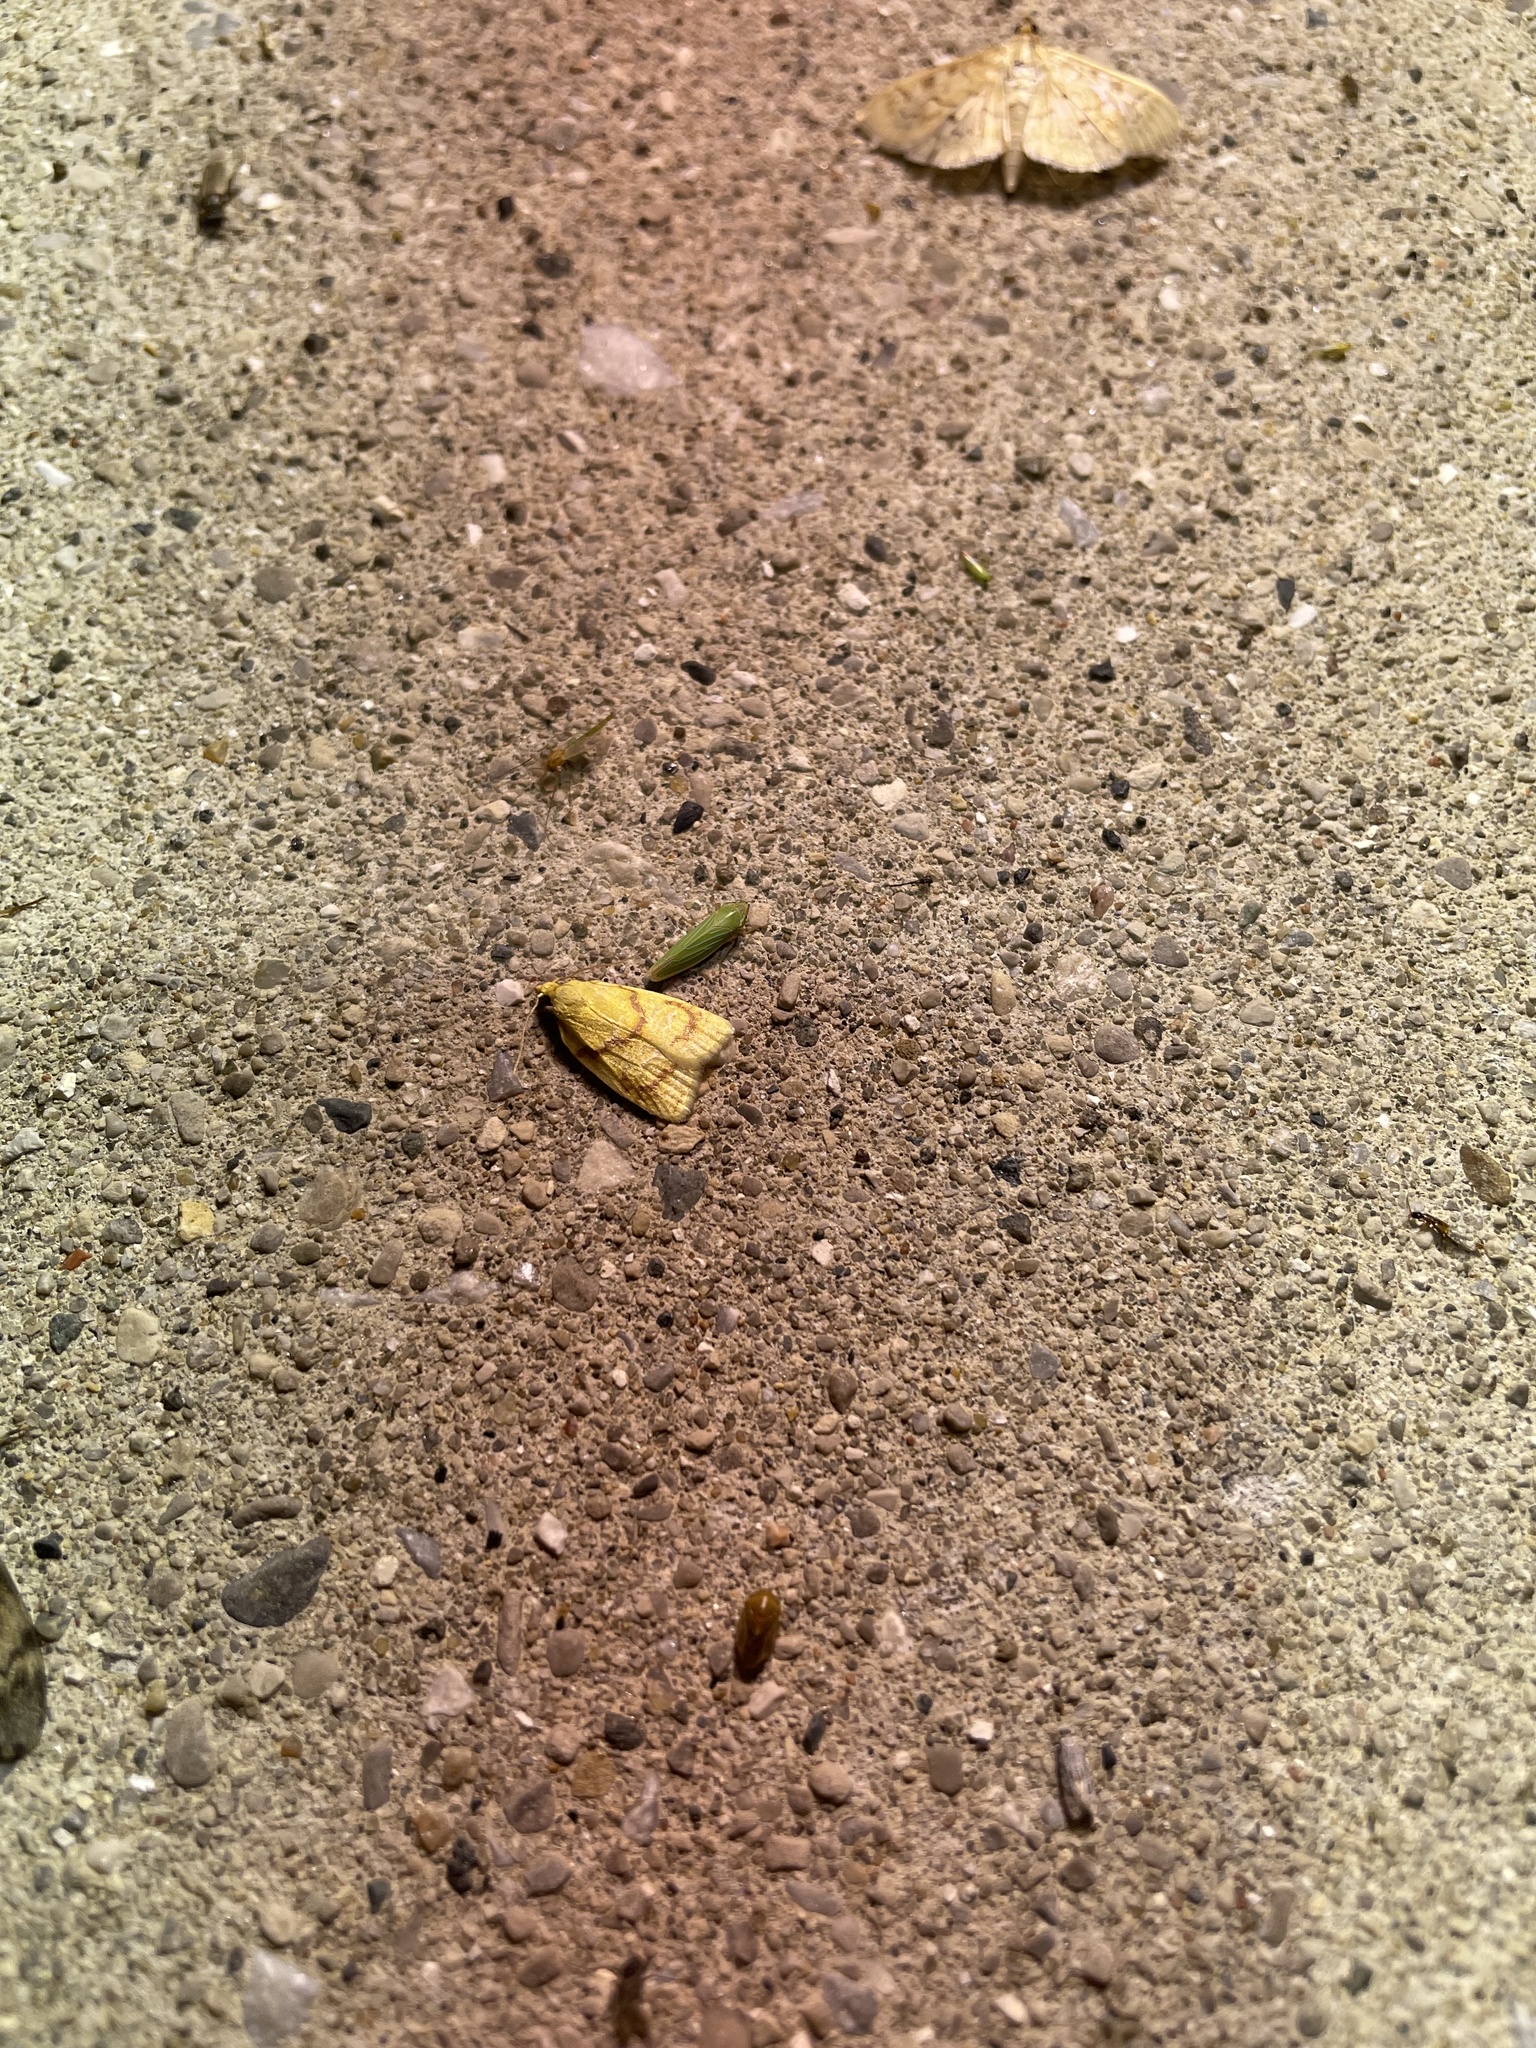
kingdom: Animalia
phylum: Arthropoda
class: Insecta
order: Lepidoptera
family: Tortricidae
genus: Cenopis
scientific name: Cenopis pettitana
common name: Maple-basswood leafroller moth
